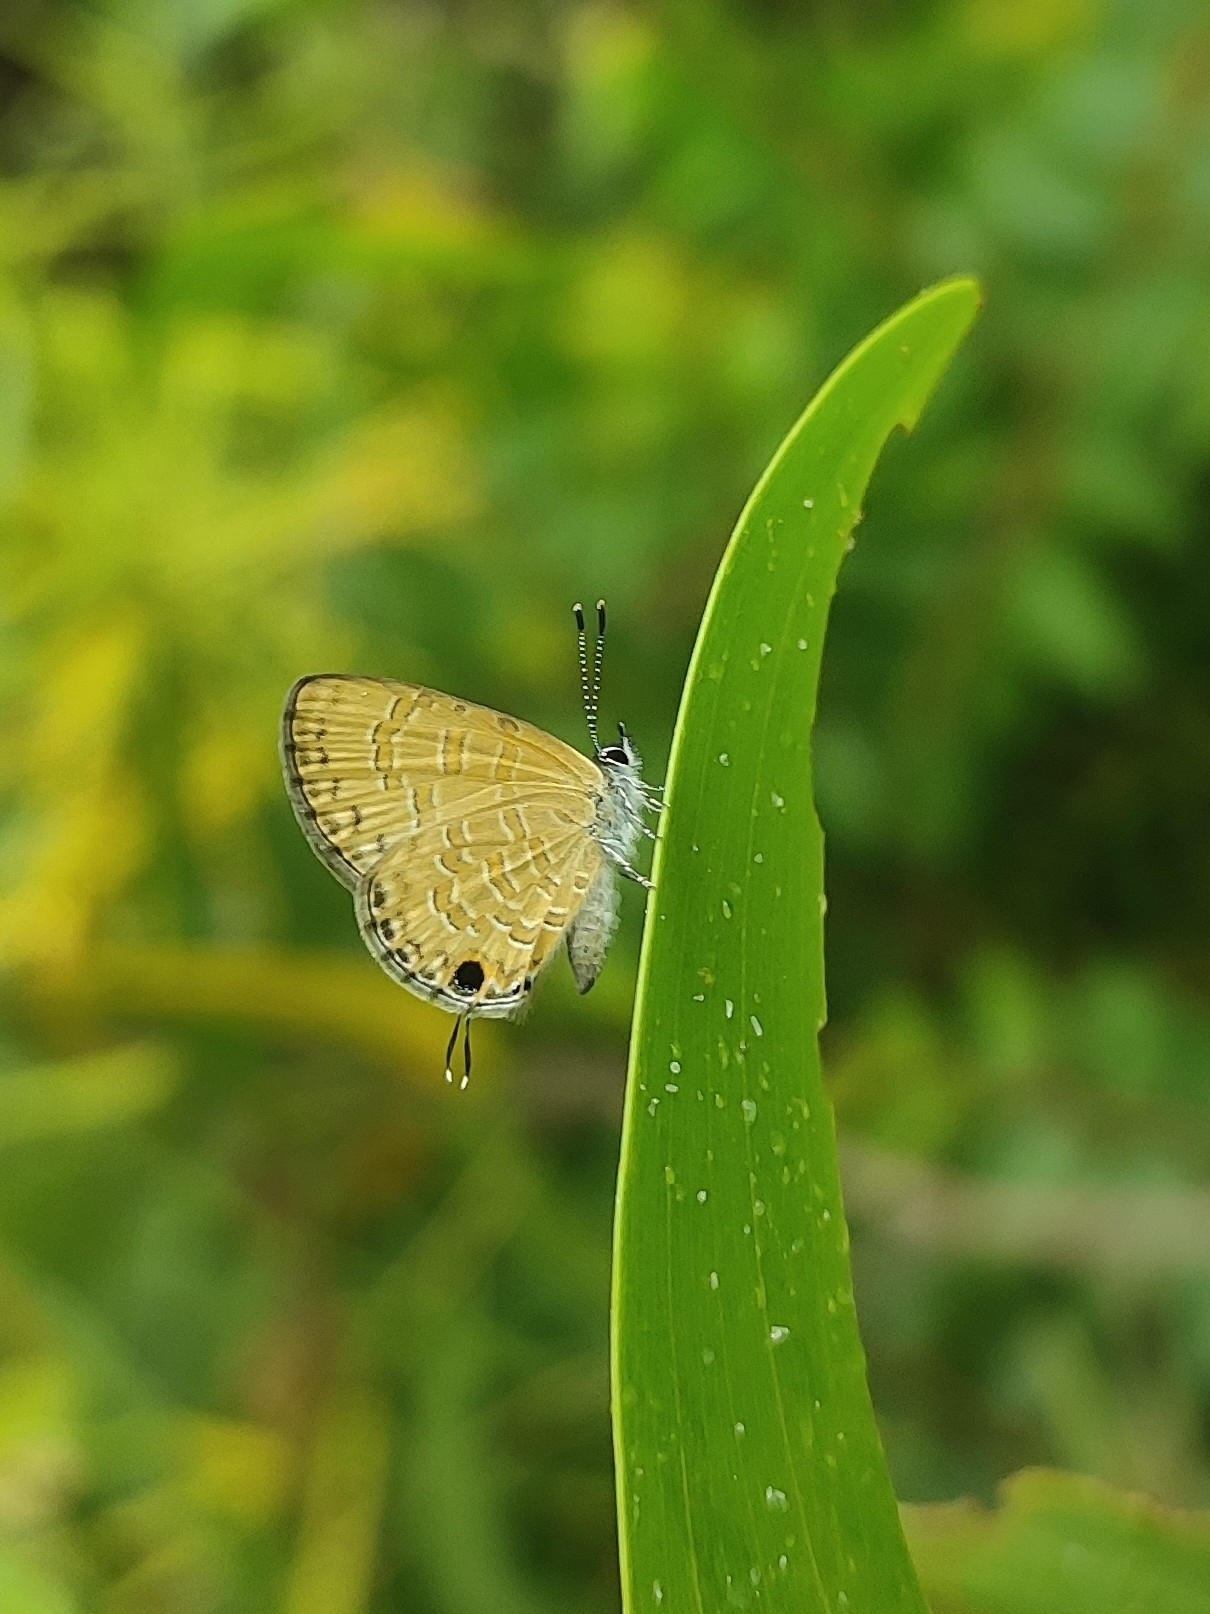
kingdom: Animalia
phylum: Arthropoda
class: Insecta
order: Lepidoptera
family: Lycaenidae
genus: Prosotas
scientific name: Prosotas nora
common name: Common line blue
